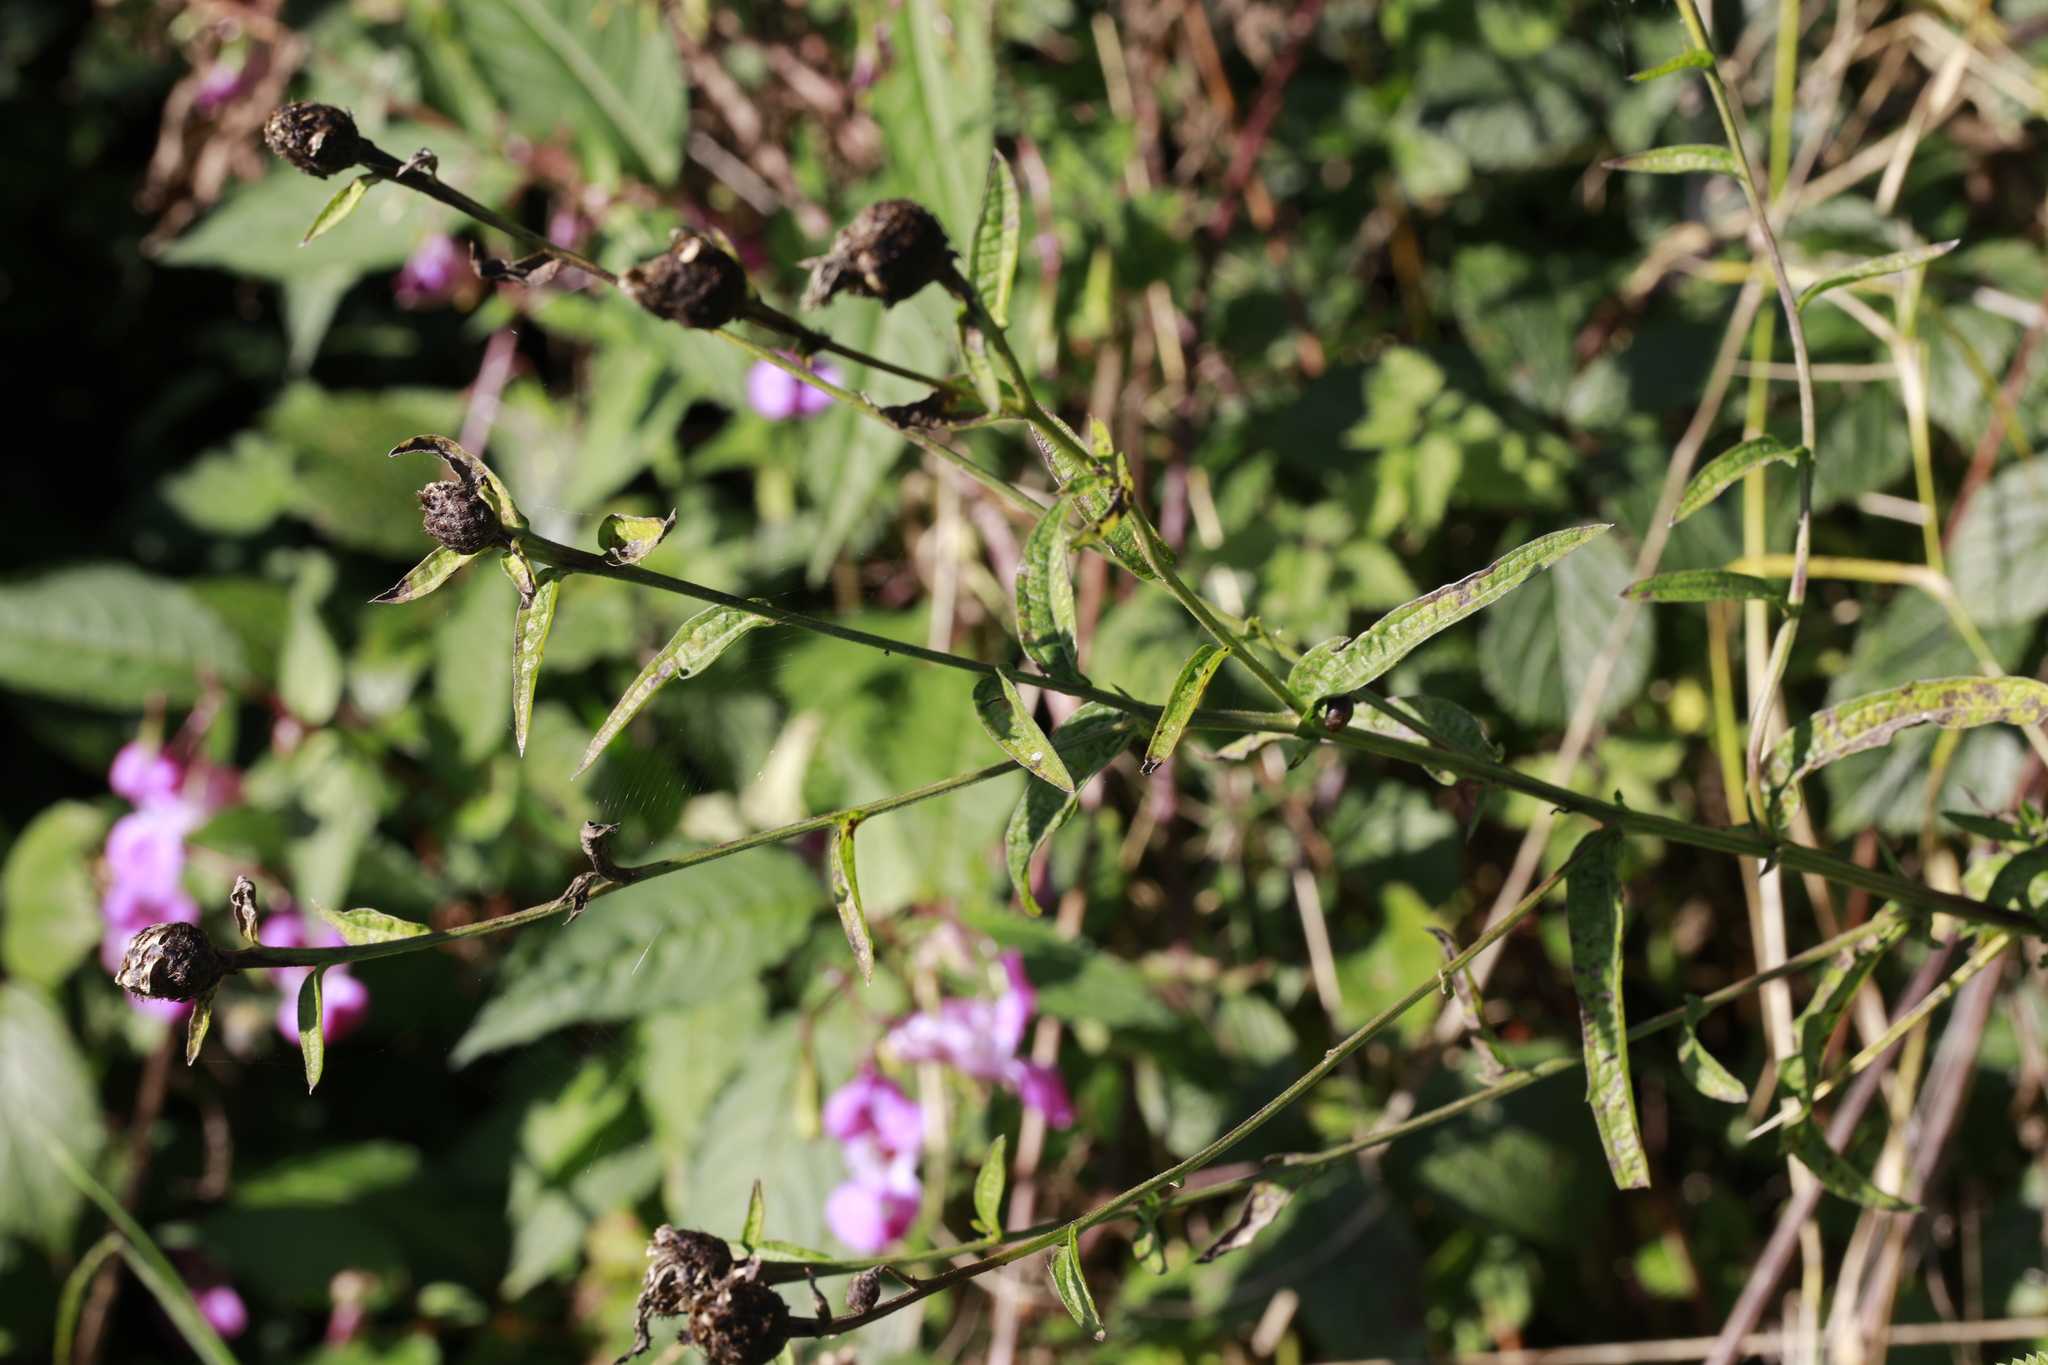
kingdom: Plantae
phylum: Tracheophyta
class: Magnoliopsida
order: Asterales
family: Asteraceae
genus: Centaurea
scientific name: Centaurea nigra
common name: Lesser knapweed
